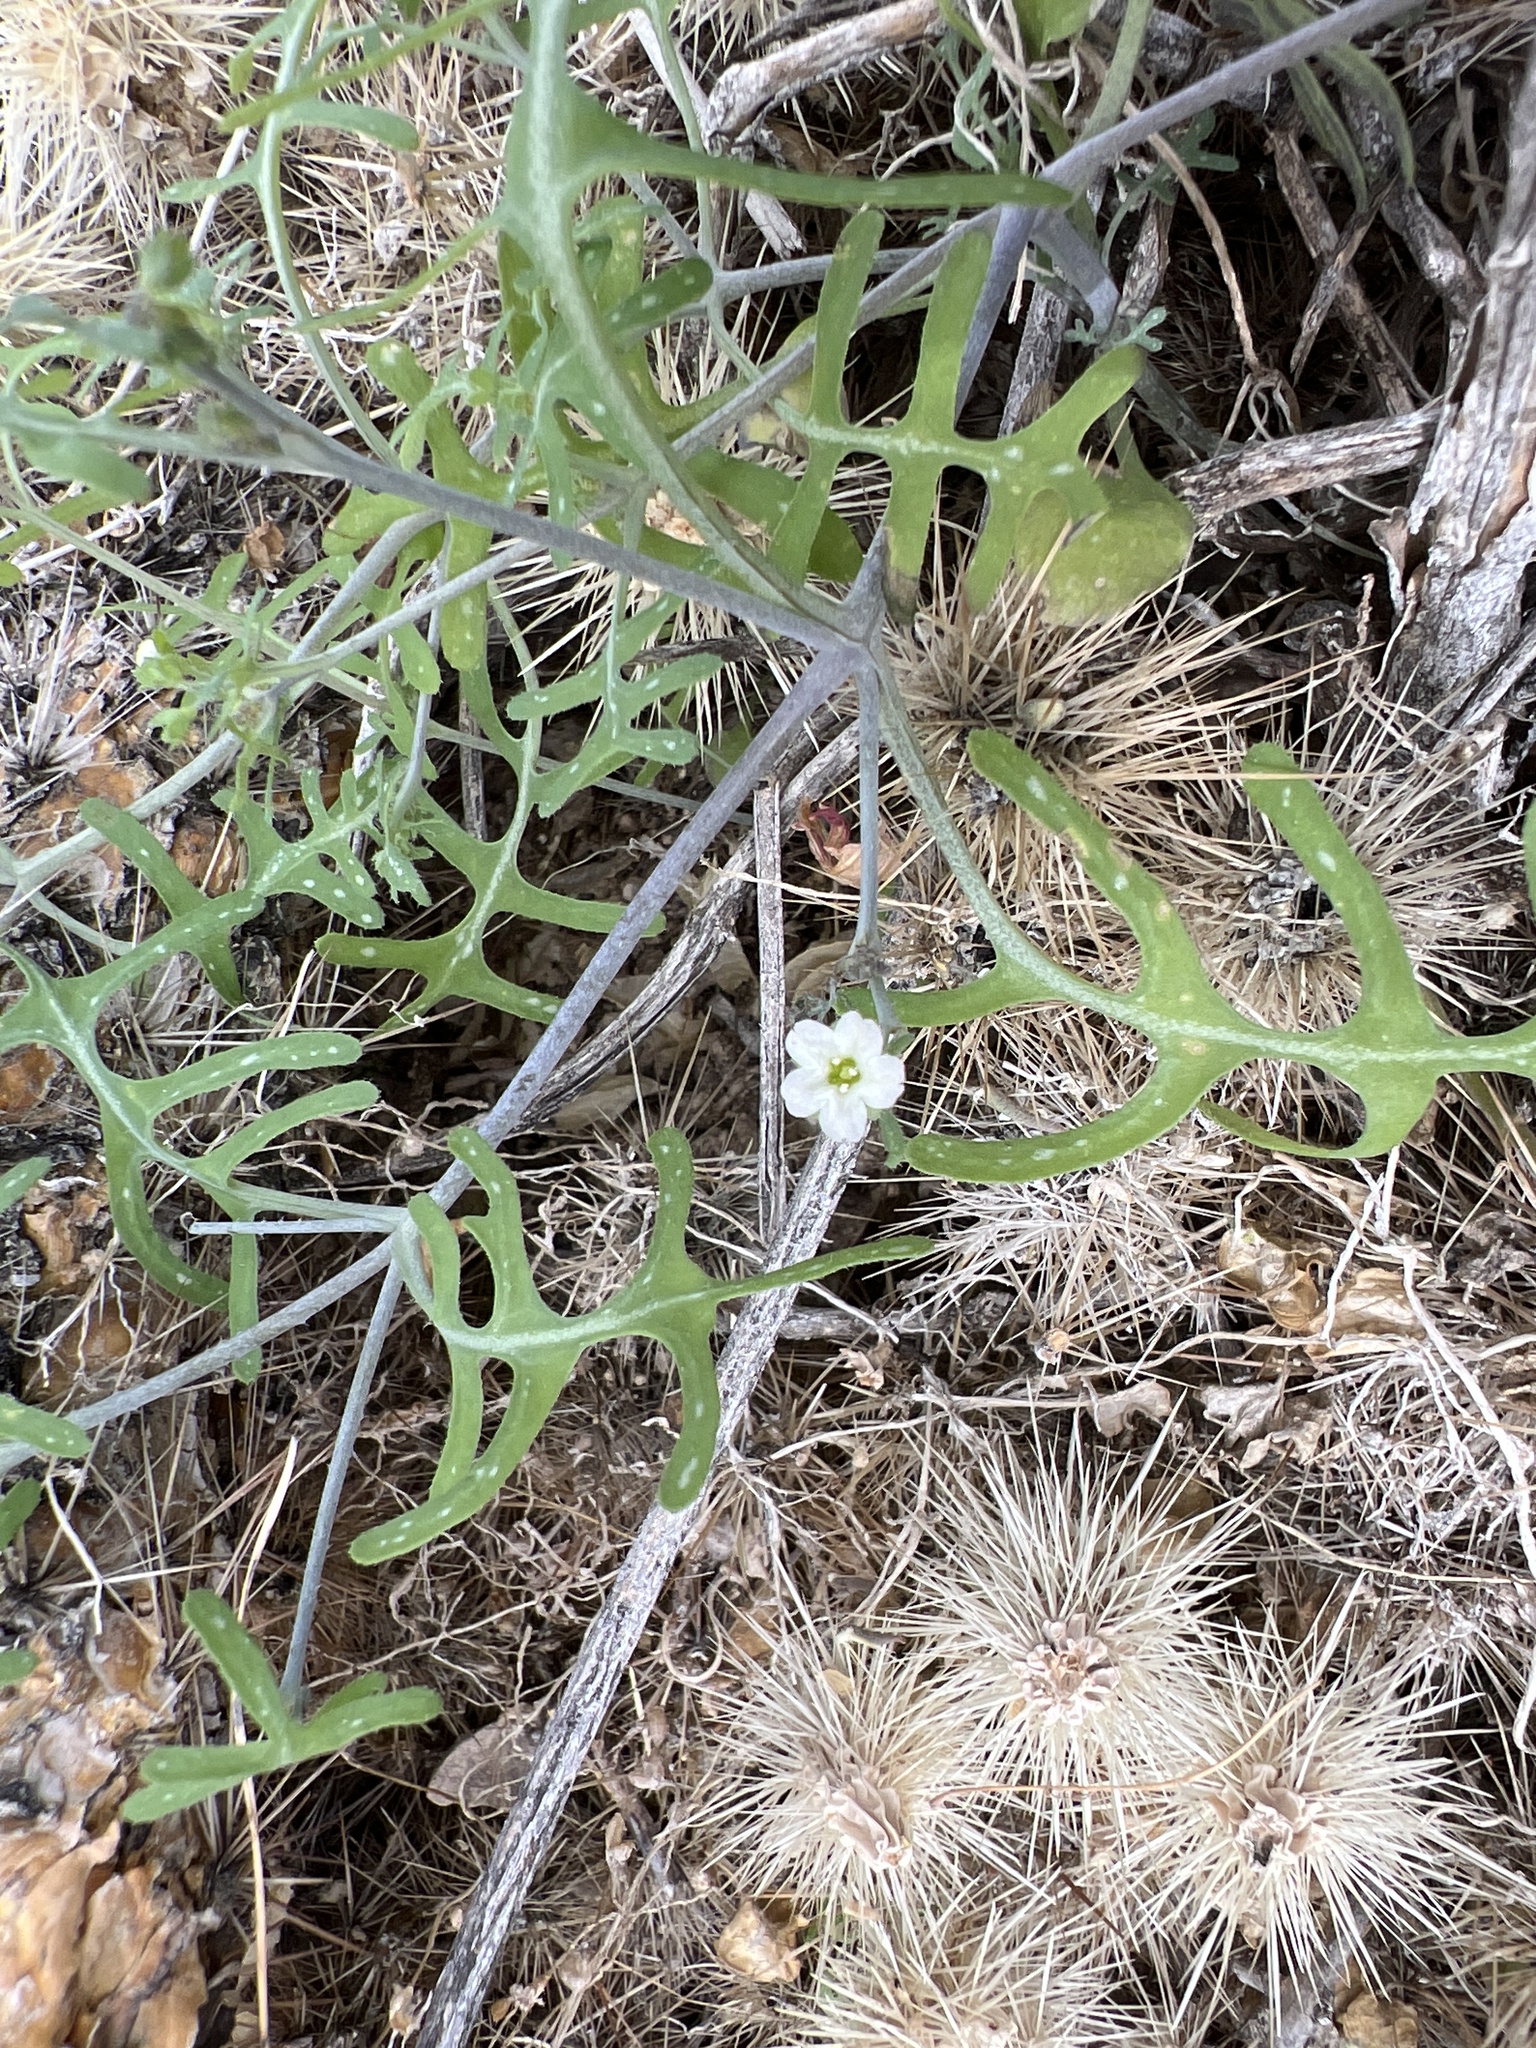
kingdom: Plantae
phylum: Tracheophyta
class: Magnoliopsida
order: Boraginales
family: Hydrophyllaceae
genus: Pholistoma
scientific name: Pholistoma membranaceum
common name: White fiesta-flower
